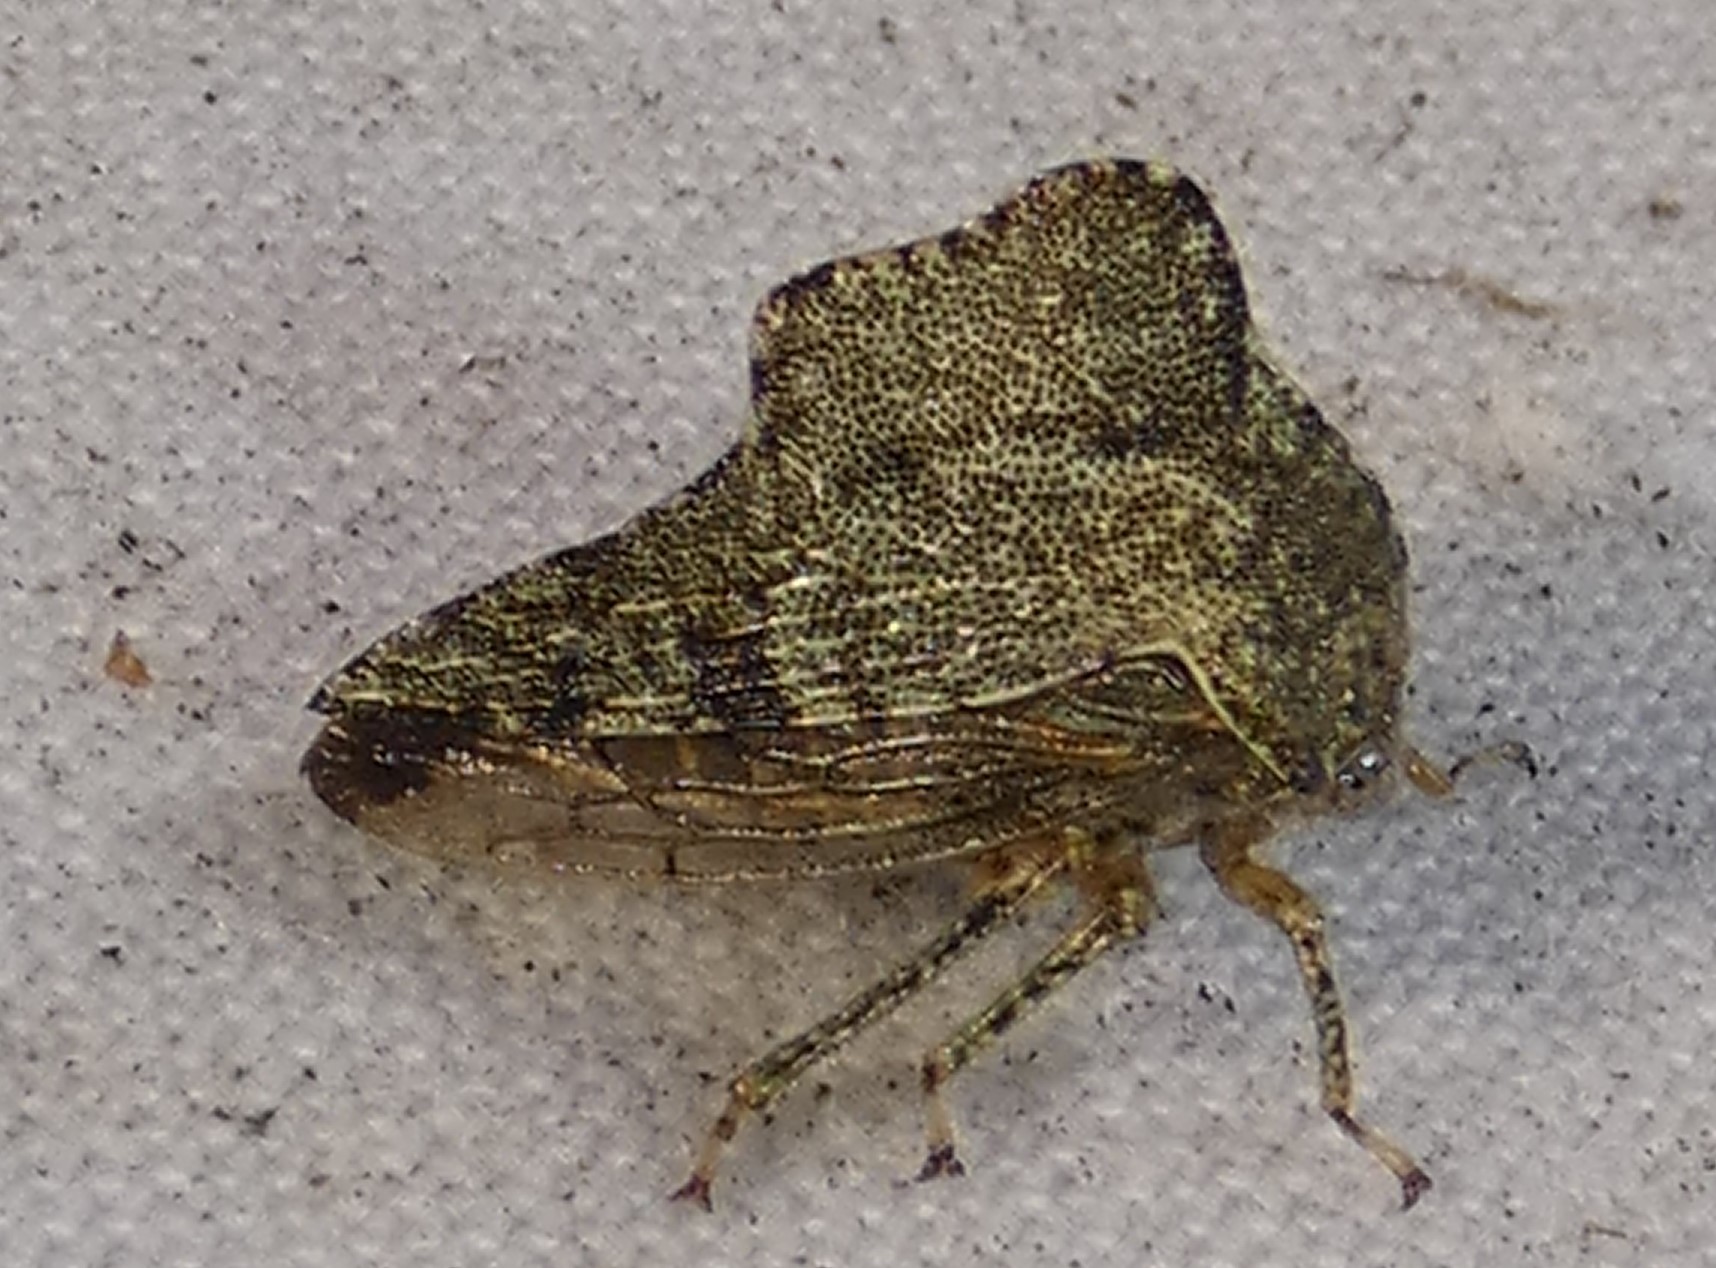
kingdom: Animalia
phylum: Arthropoda
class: Insecta
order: Hemiptera
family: Membracidae
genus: Heliria
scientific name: Heliria cornutula
